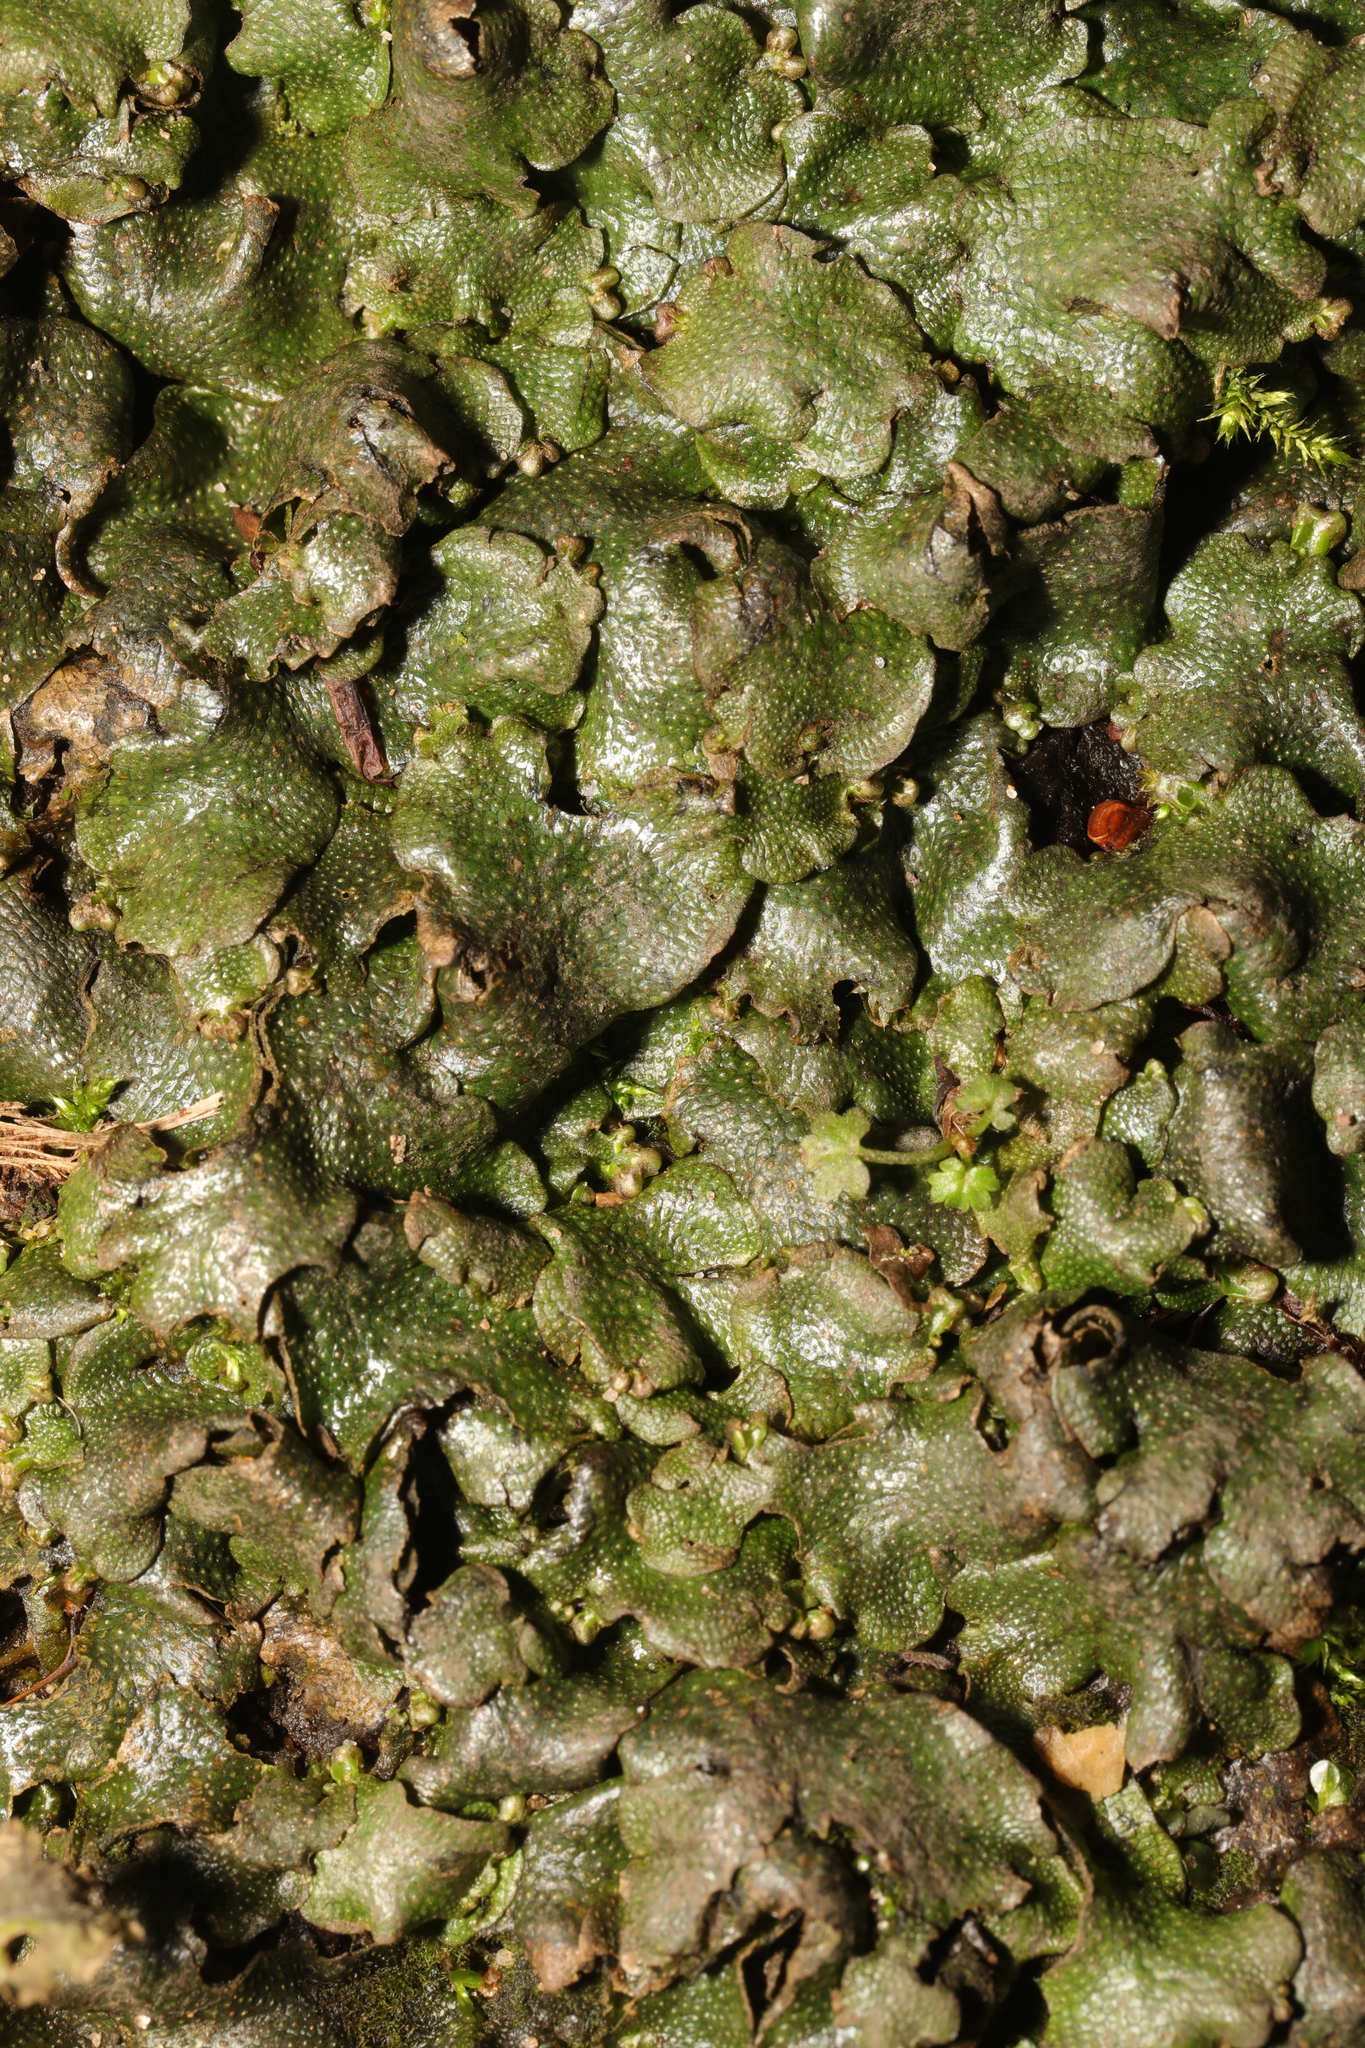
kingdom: Plantae
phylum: Marchantiophyta
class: Marchantiopsida
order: Marchantiales
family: Conocephalaceae
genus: Conocephalum
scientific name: Conocephalum conicum
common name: Great scented liverwort
